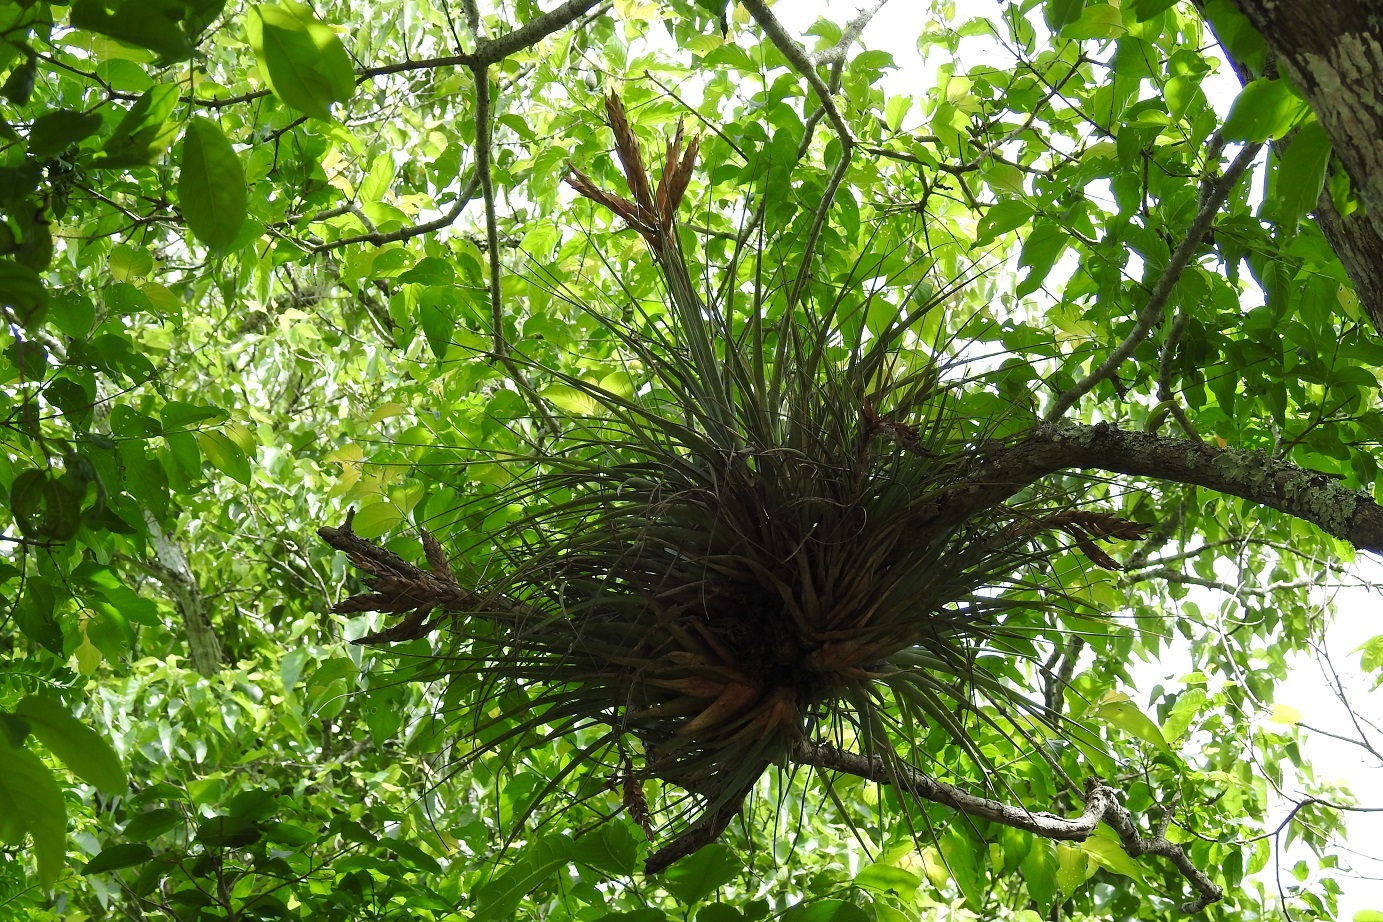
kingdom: Plantae
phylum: Tracheophyta
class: Liliopsida
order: Poales
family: Bromeliaceae
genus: Tillandsia
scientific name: Tillandsia fasciculata
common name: Giant airplant
